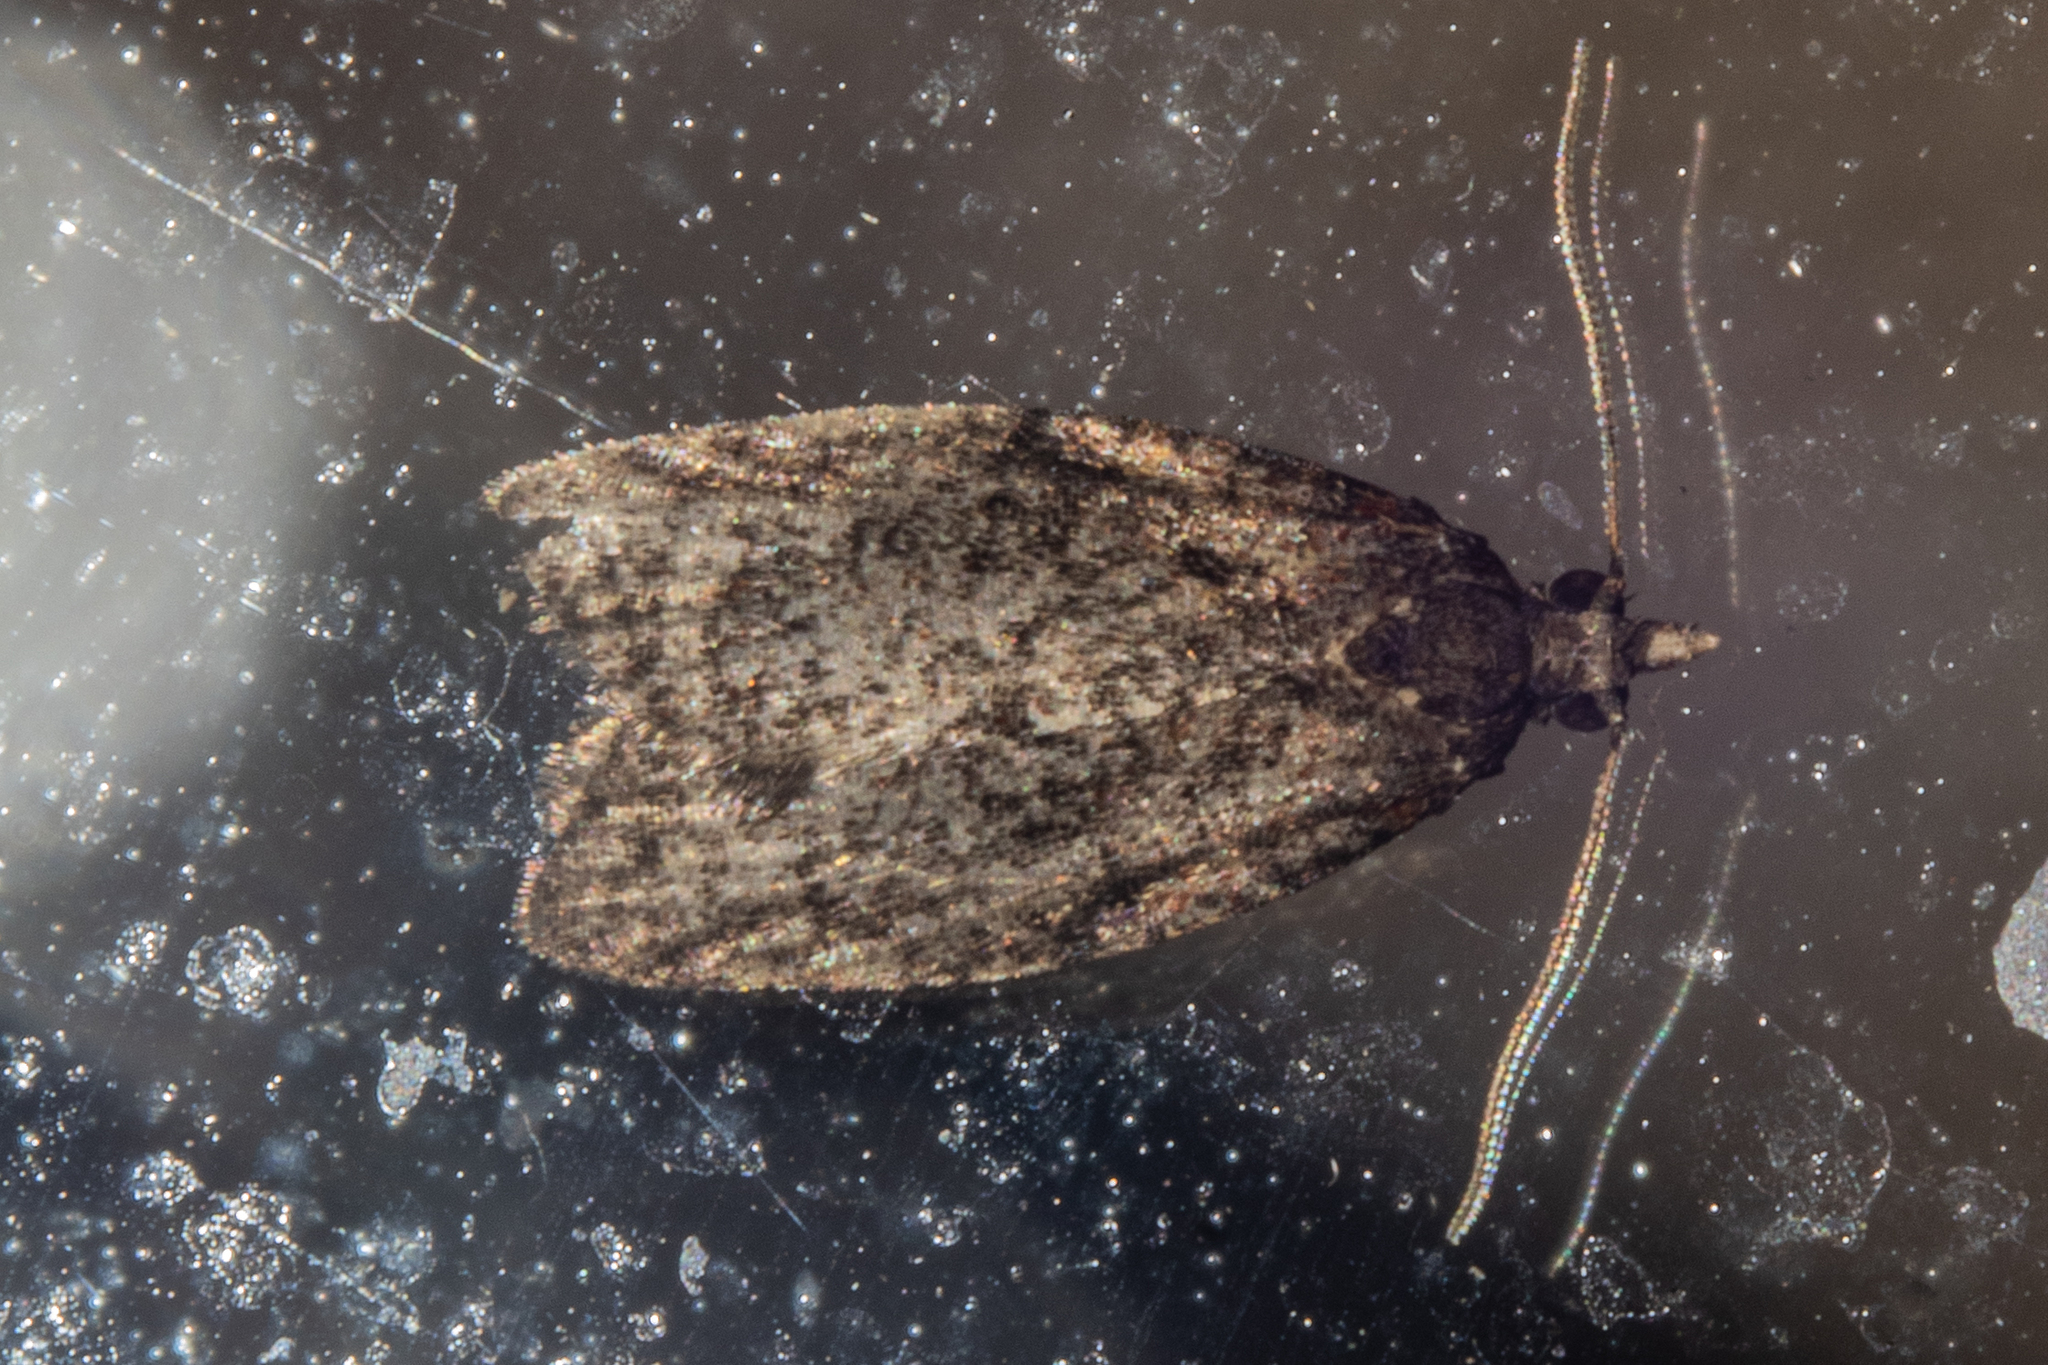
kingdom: Animalia
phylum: Arthropoda
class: Insecta
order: Lepidoptera
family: Tortricidae
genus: Capua
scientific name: Capua intractana
